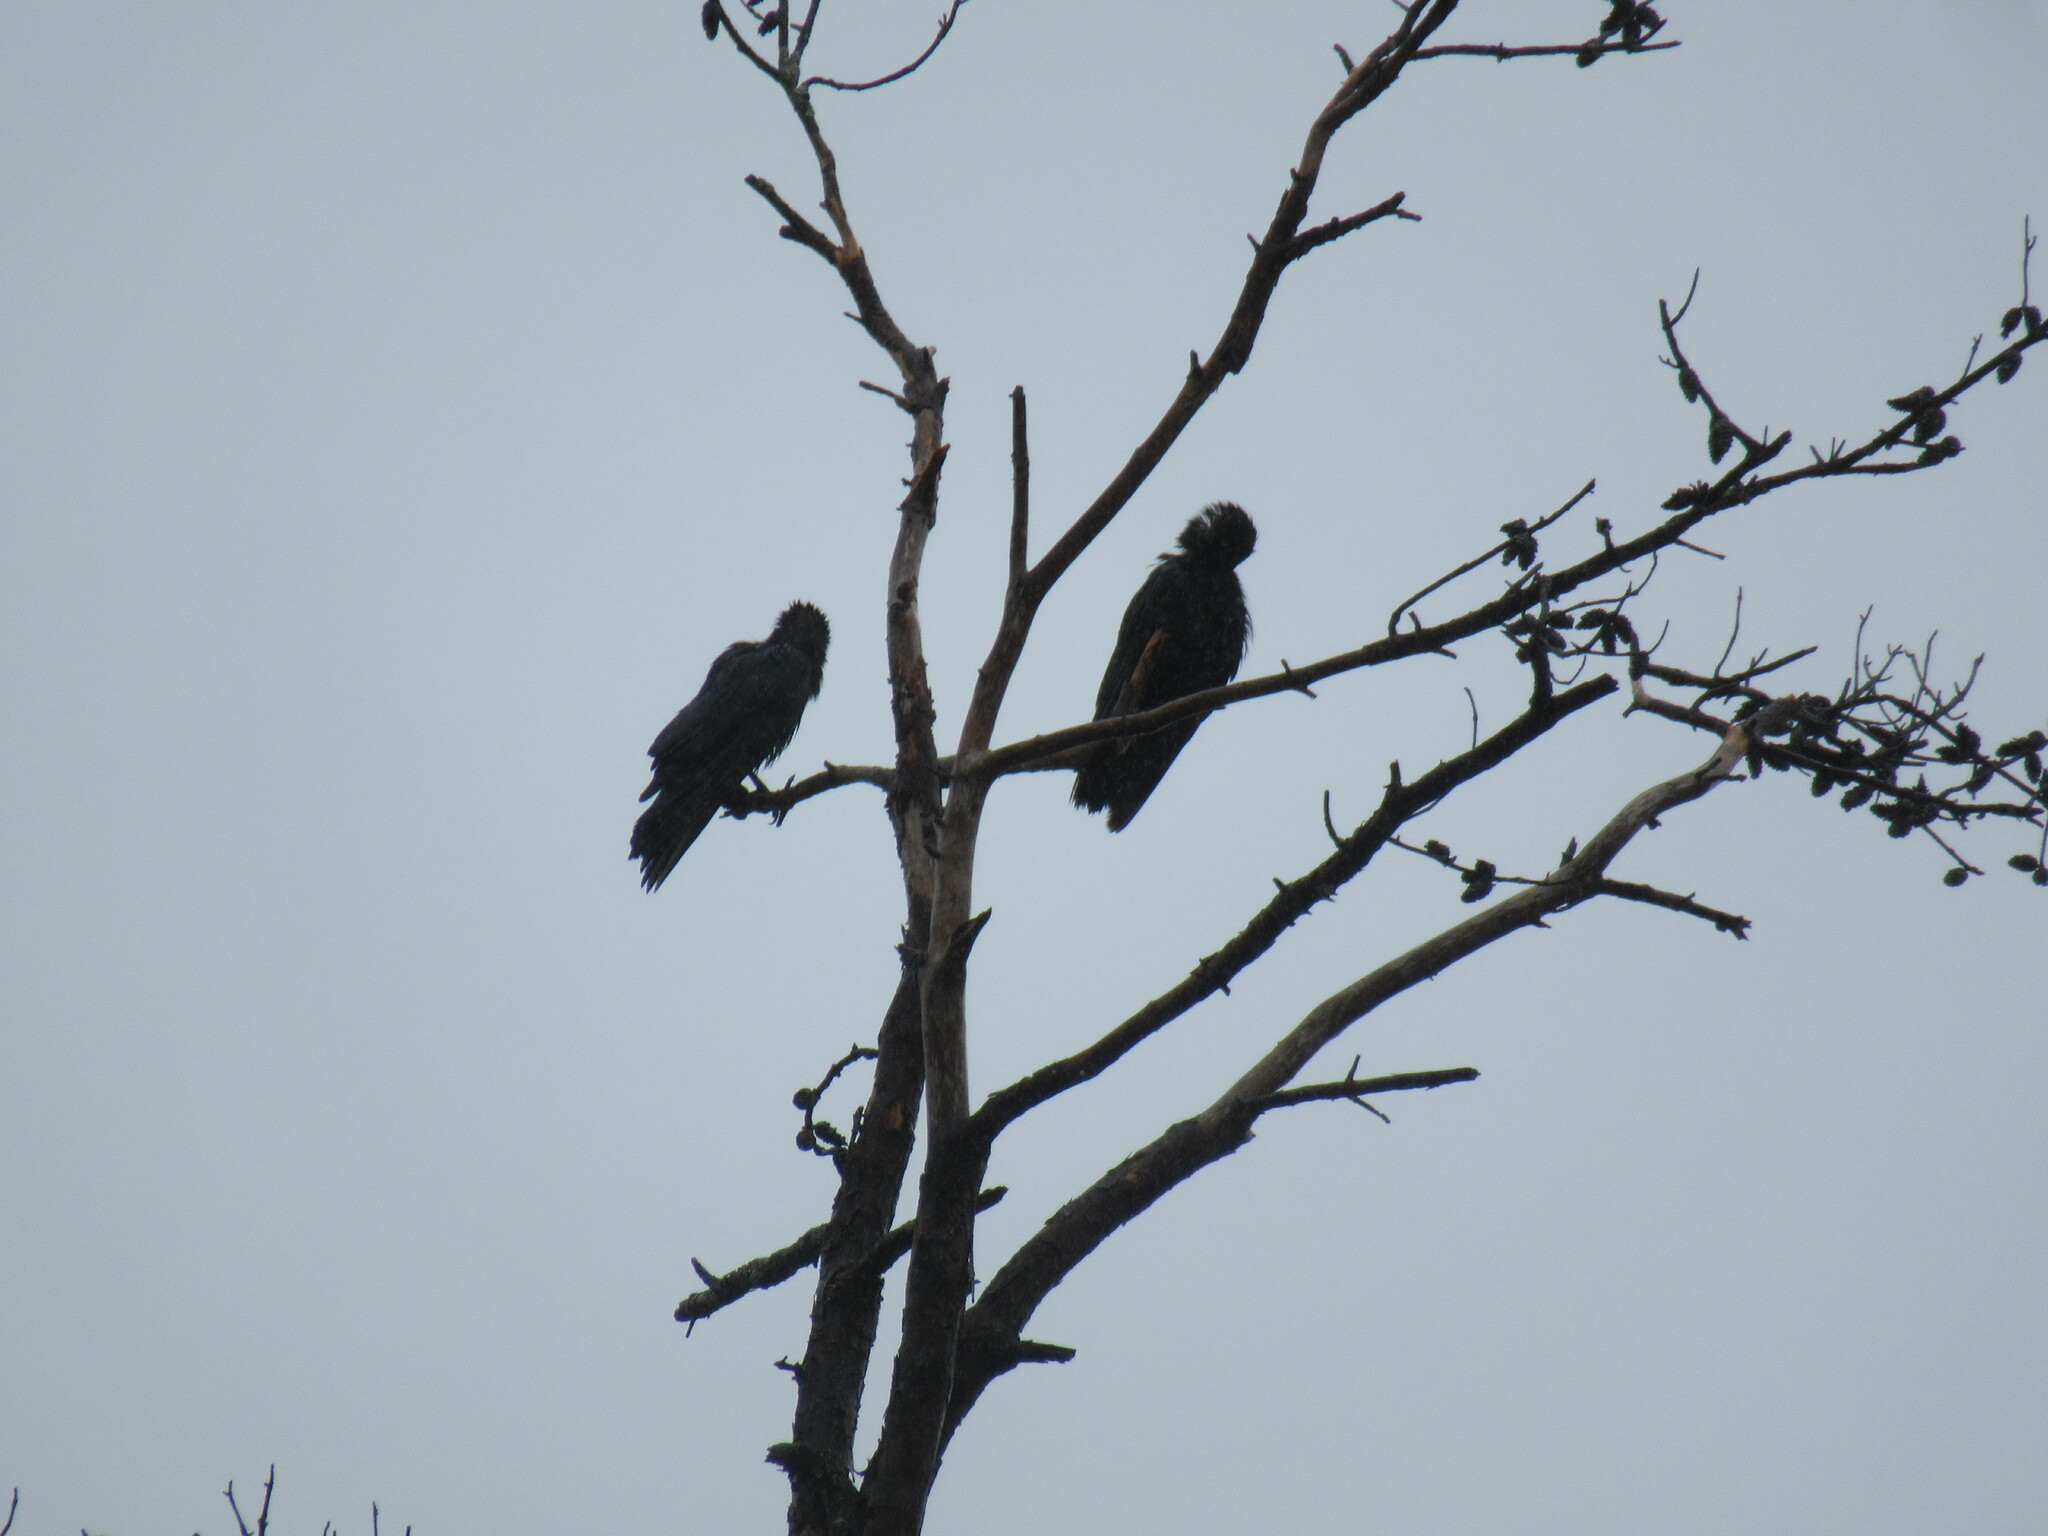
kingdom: Animalia
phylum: Chordata
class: Aves
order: Passeriformes
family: Corvidae
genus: Corvus
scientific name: Corvus
